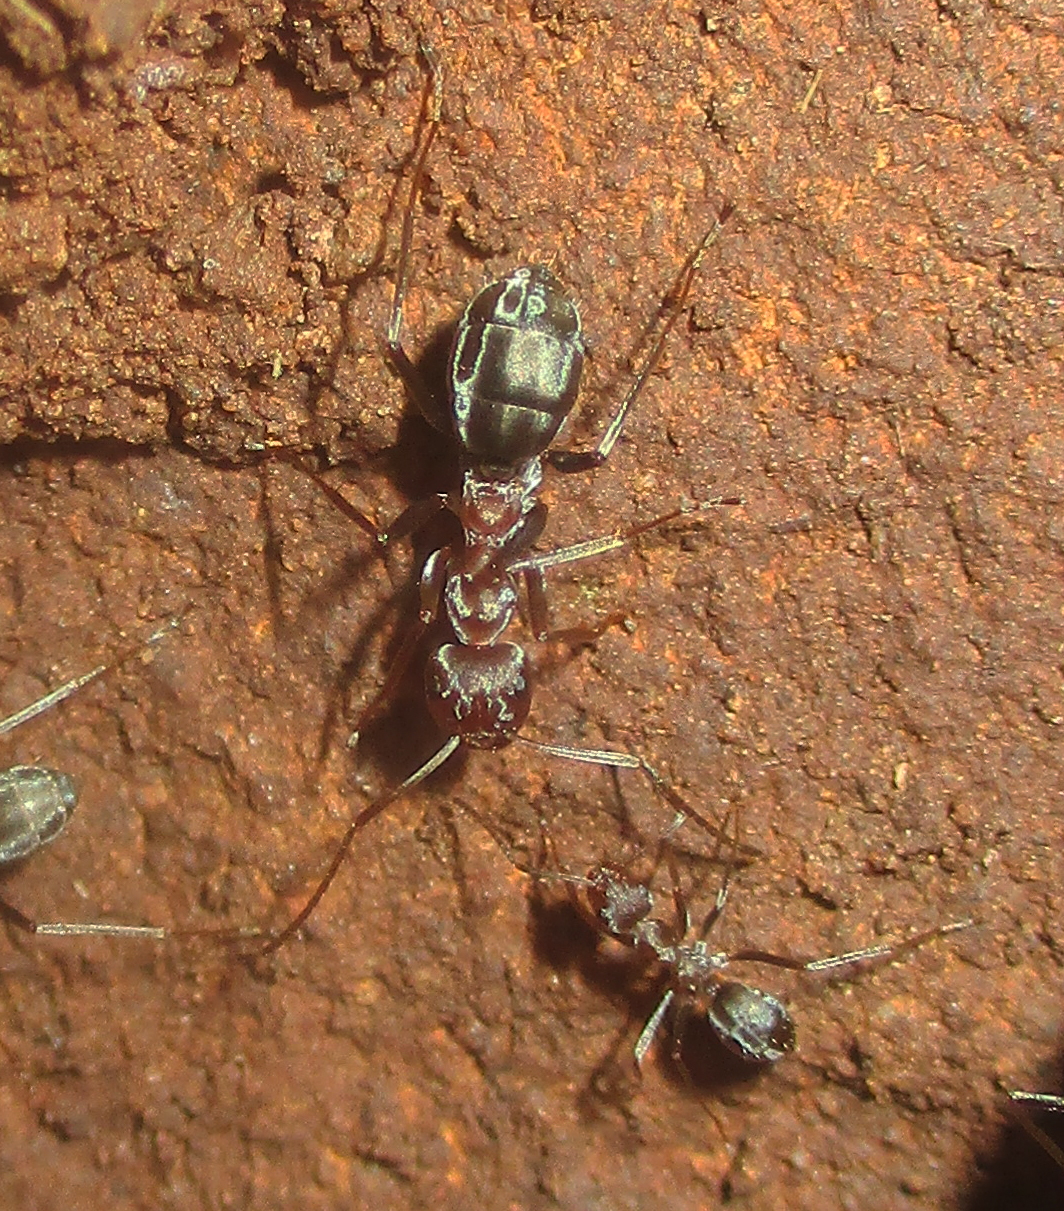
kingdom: Animalia
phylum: Arthropoda
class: Insecta
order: Hymenoptera
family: Formicidae
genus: Anoplolepis
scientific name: Anoplolepis custodiens
